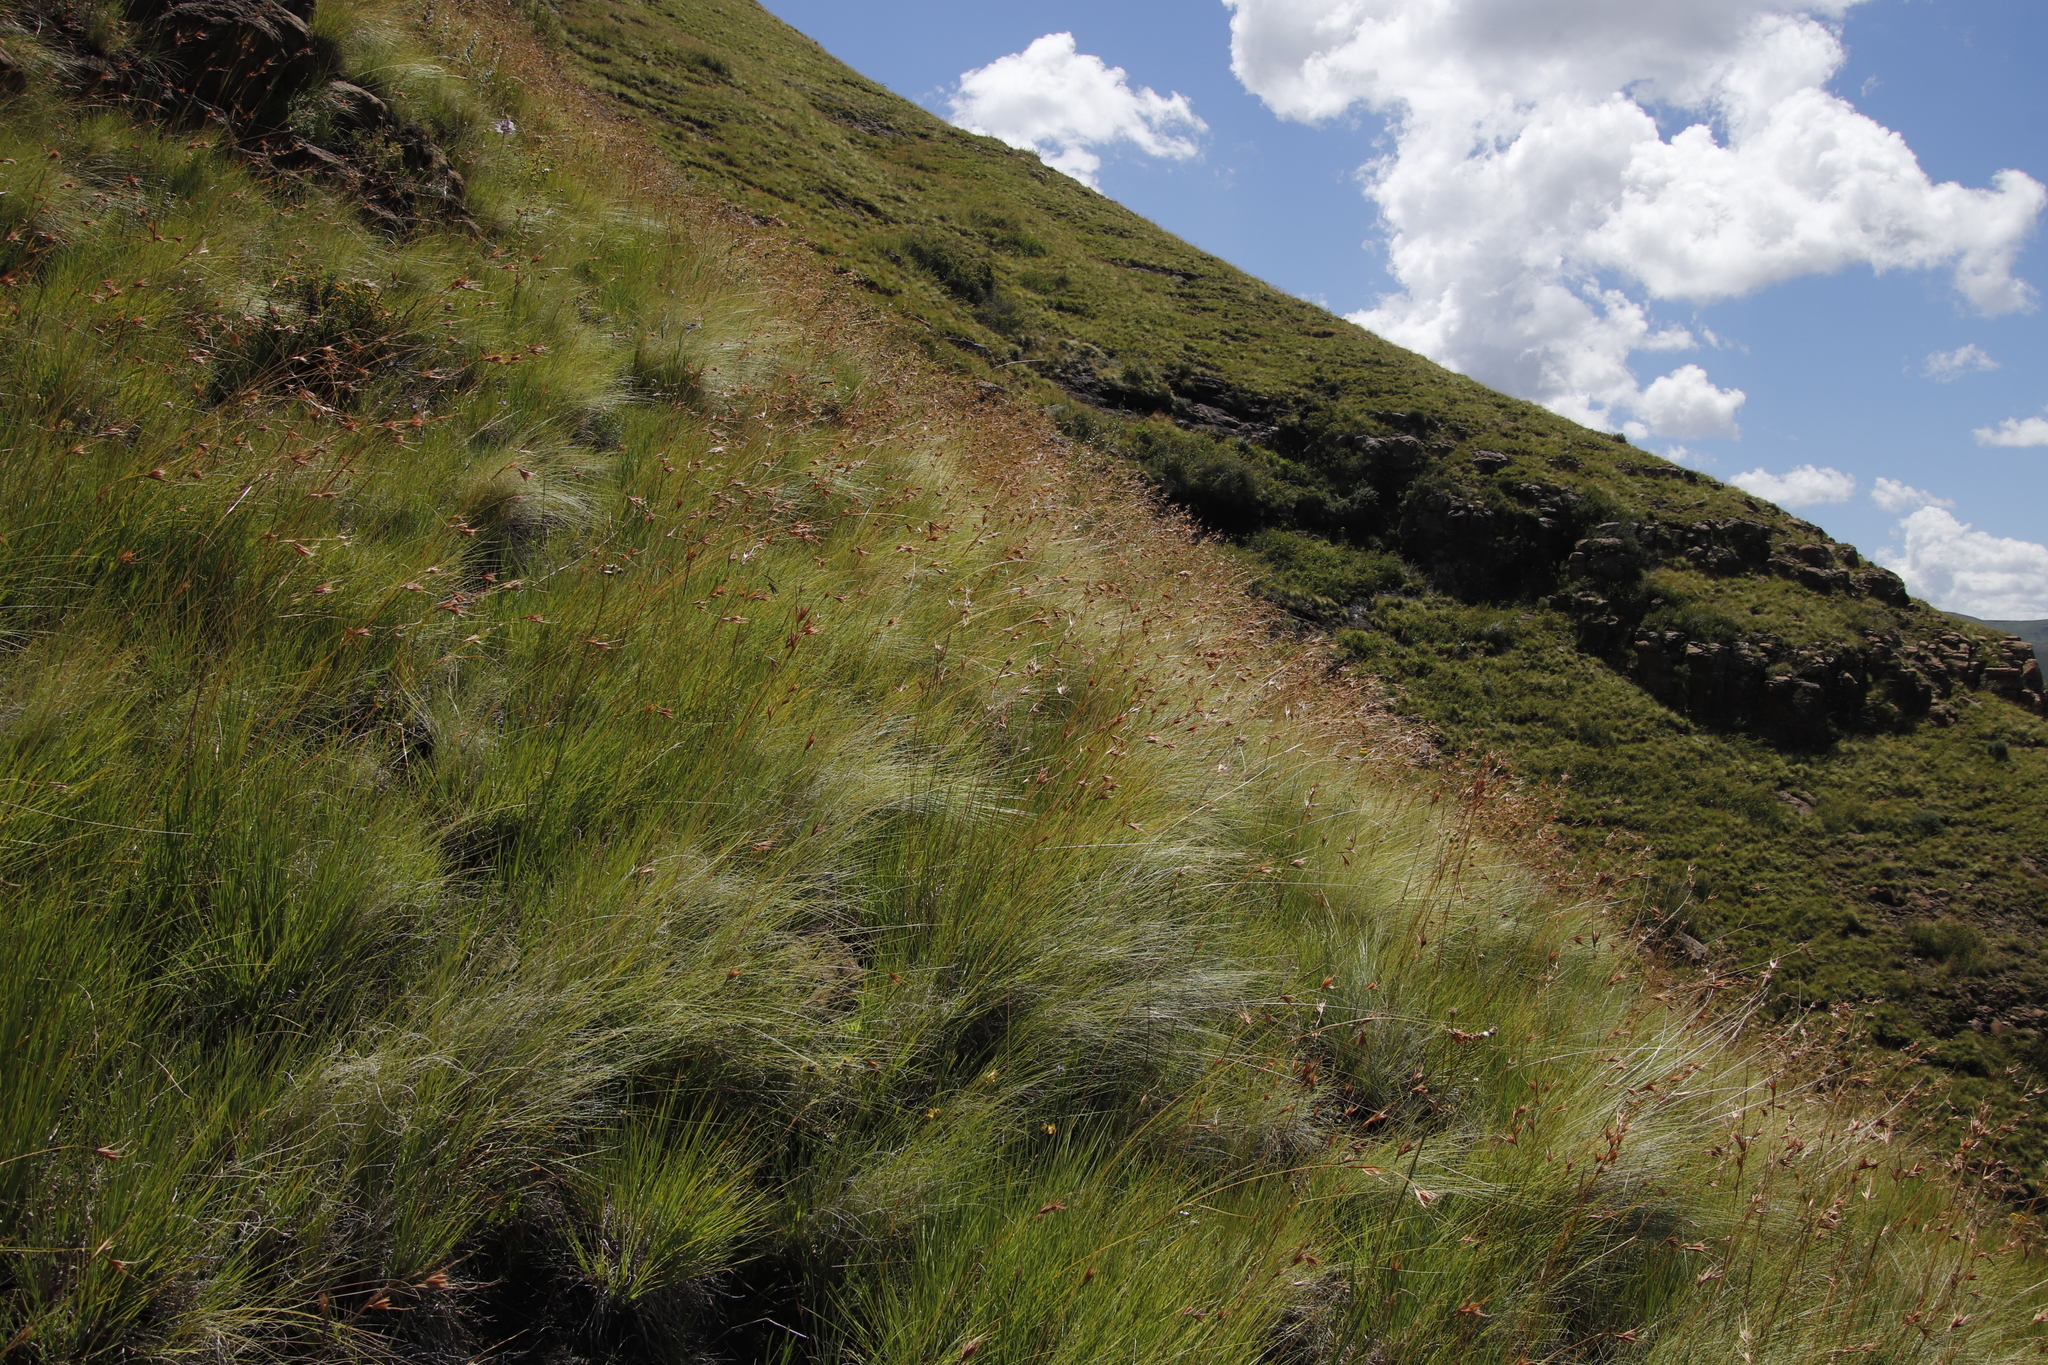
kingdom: Plantae
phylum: Tracheophyta
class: Liliopsida
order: Poales
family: Poaceae
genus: Themeda
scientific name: Themeda triandra
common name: Kangaroo grass
